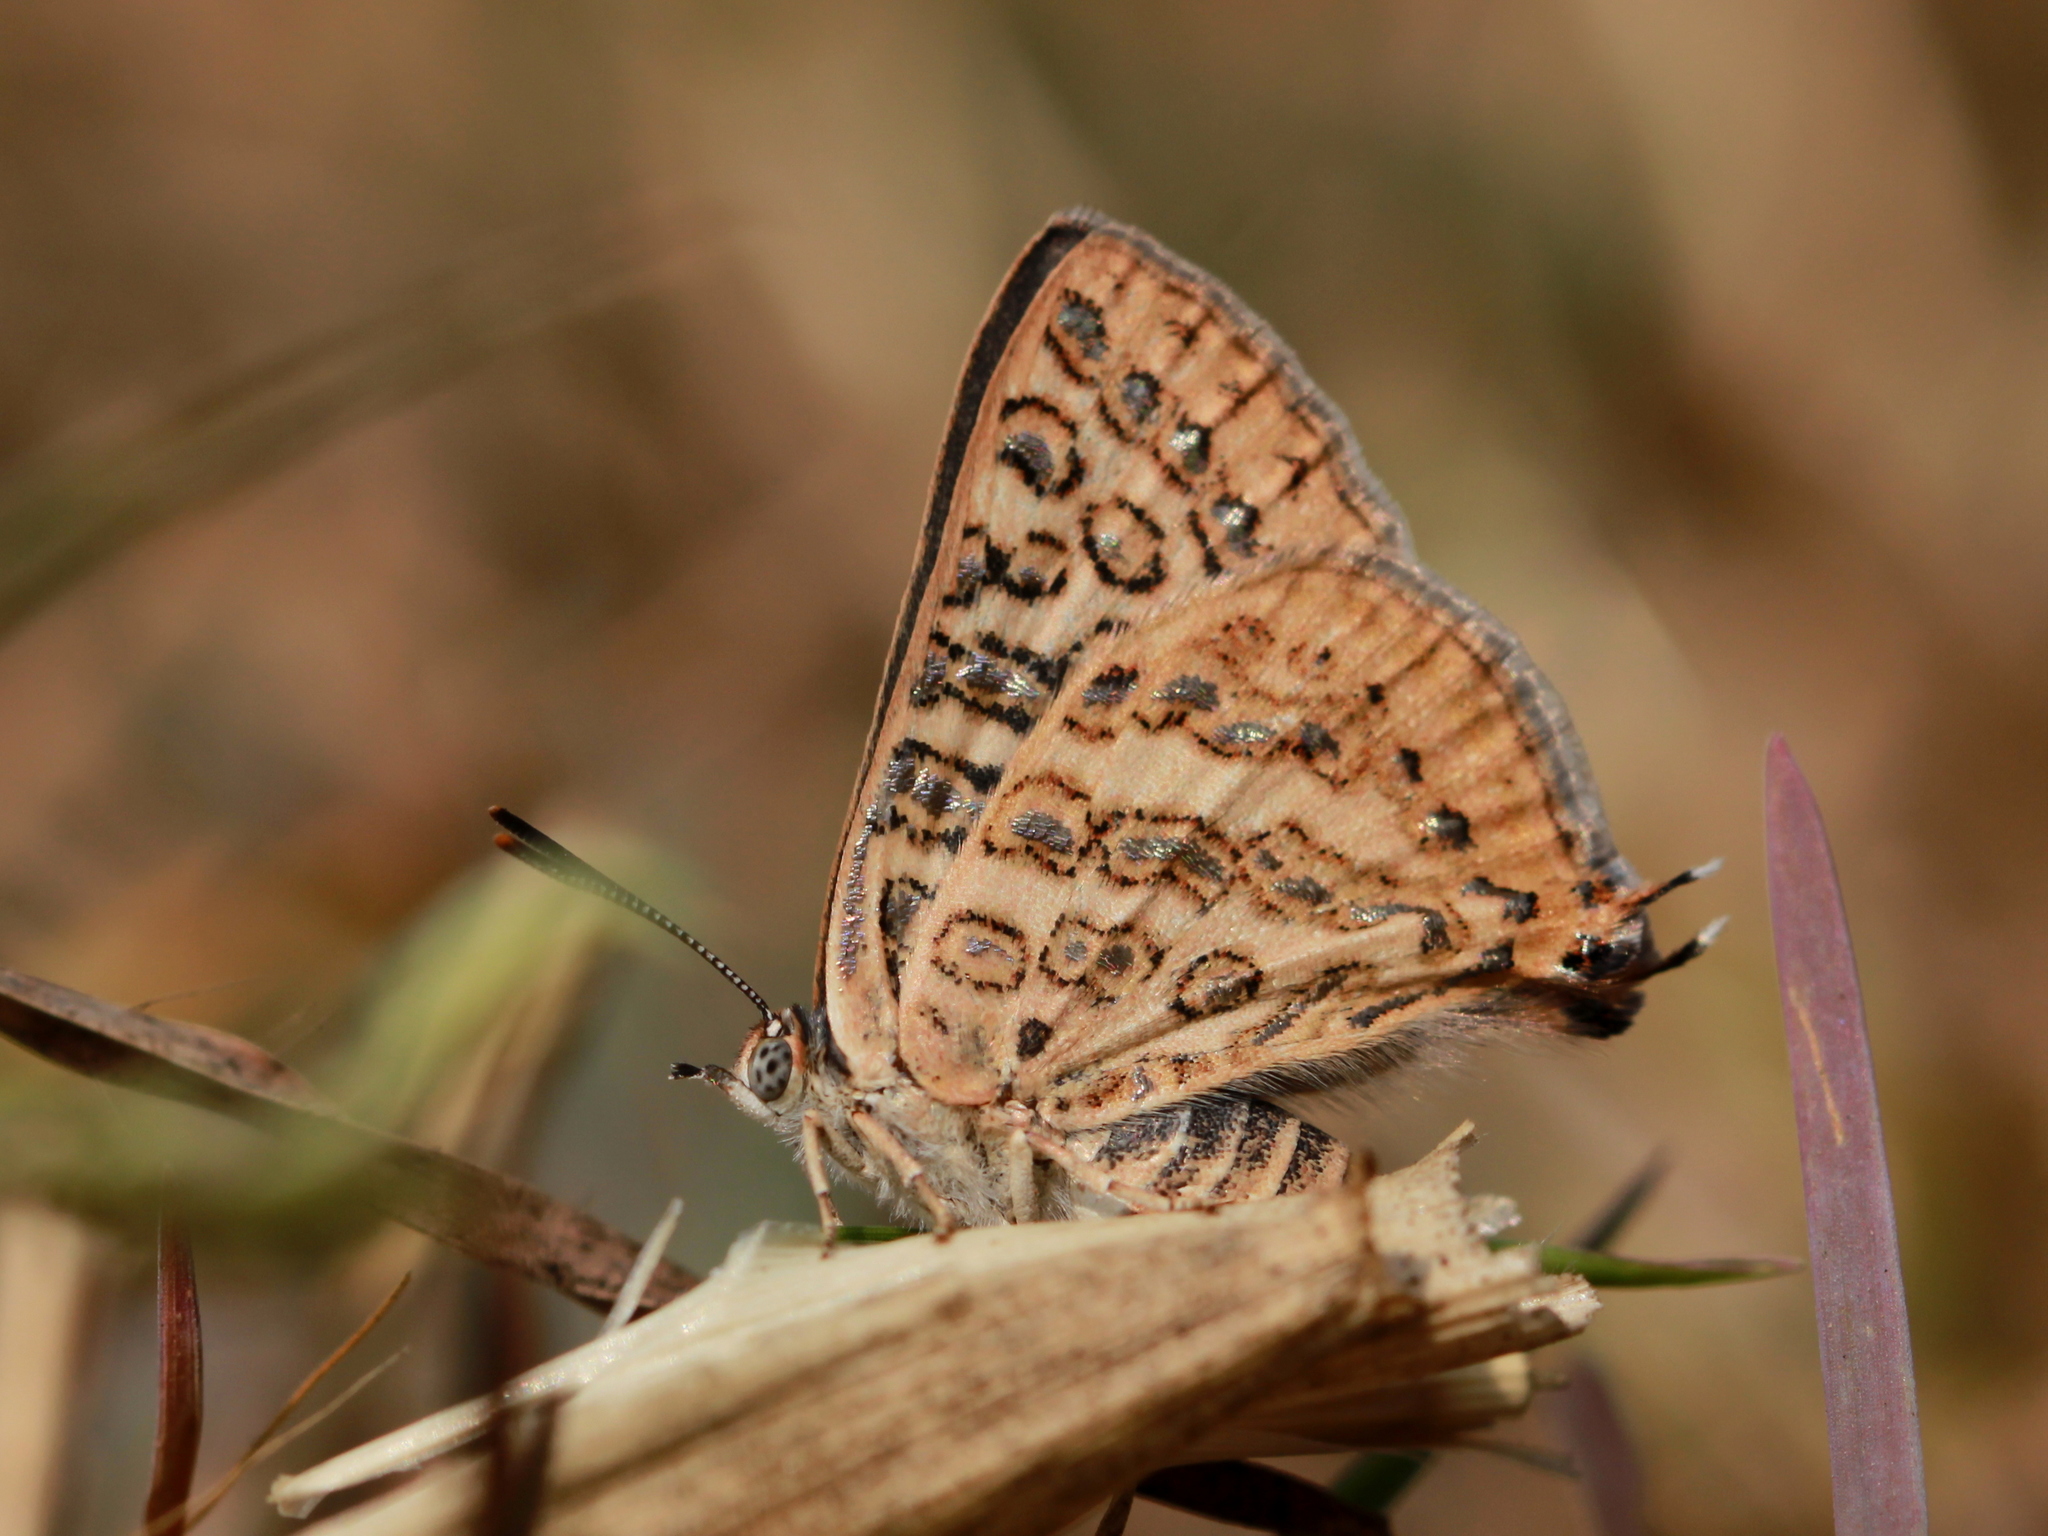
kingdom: Animalia
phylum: Arthropoda
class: Insecta
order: Lepidoptera
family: Lycaenidae
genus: Aphnaeus
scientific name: Aphnaeus lilacinus
